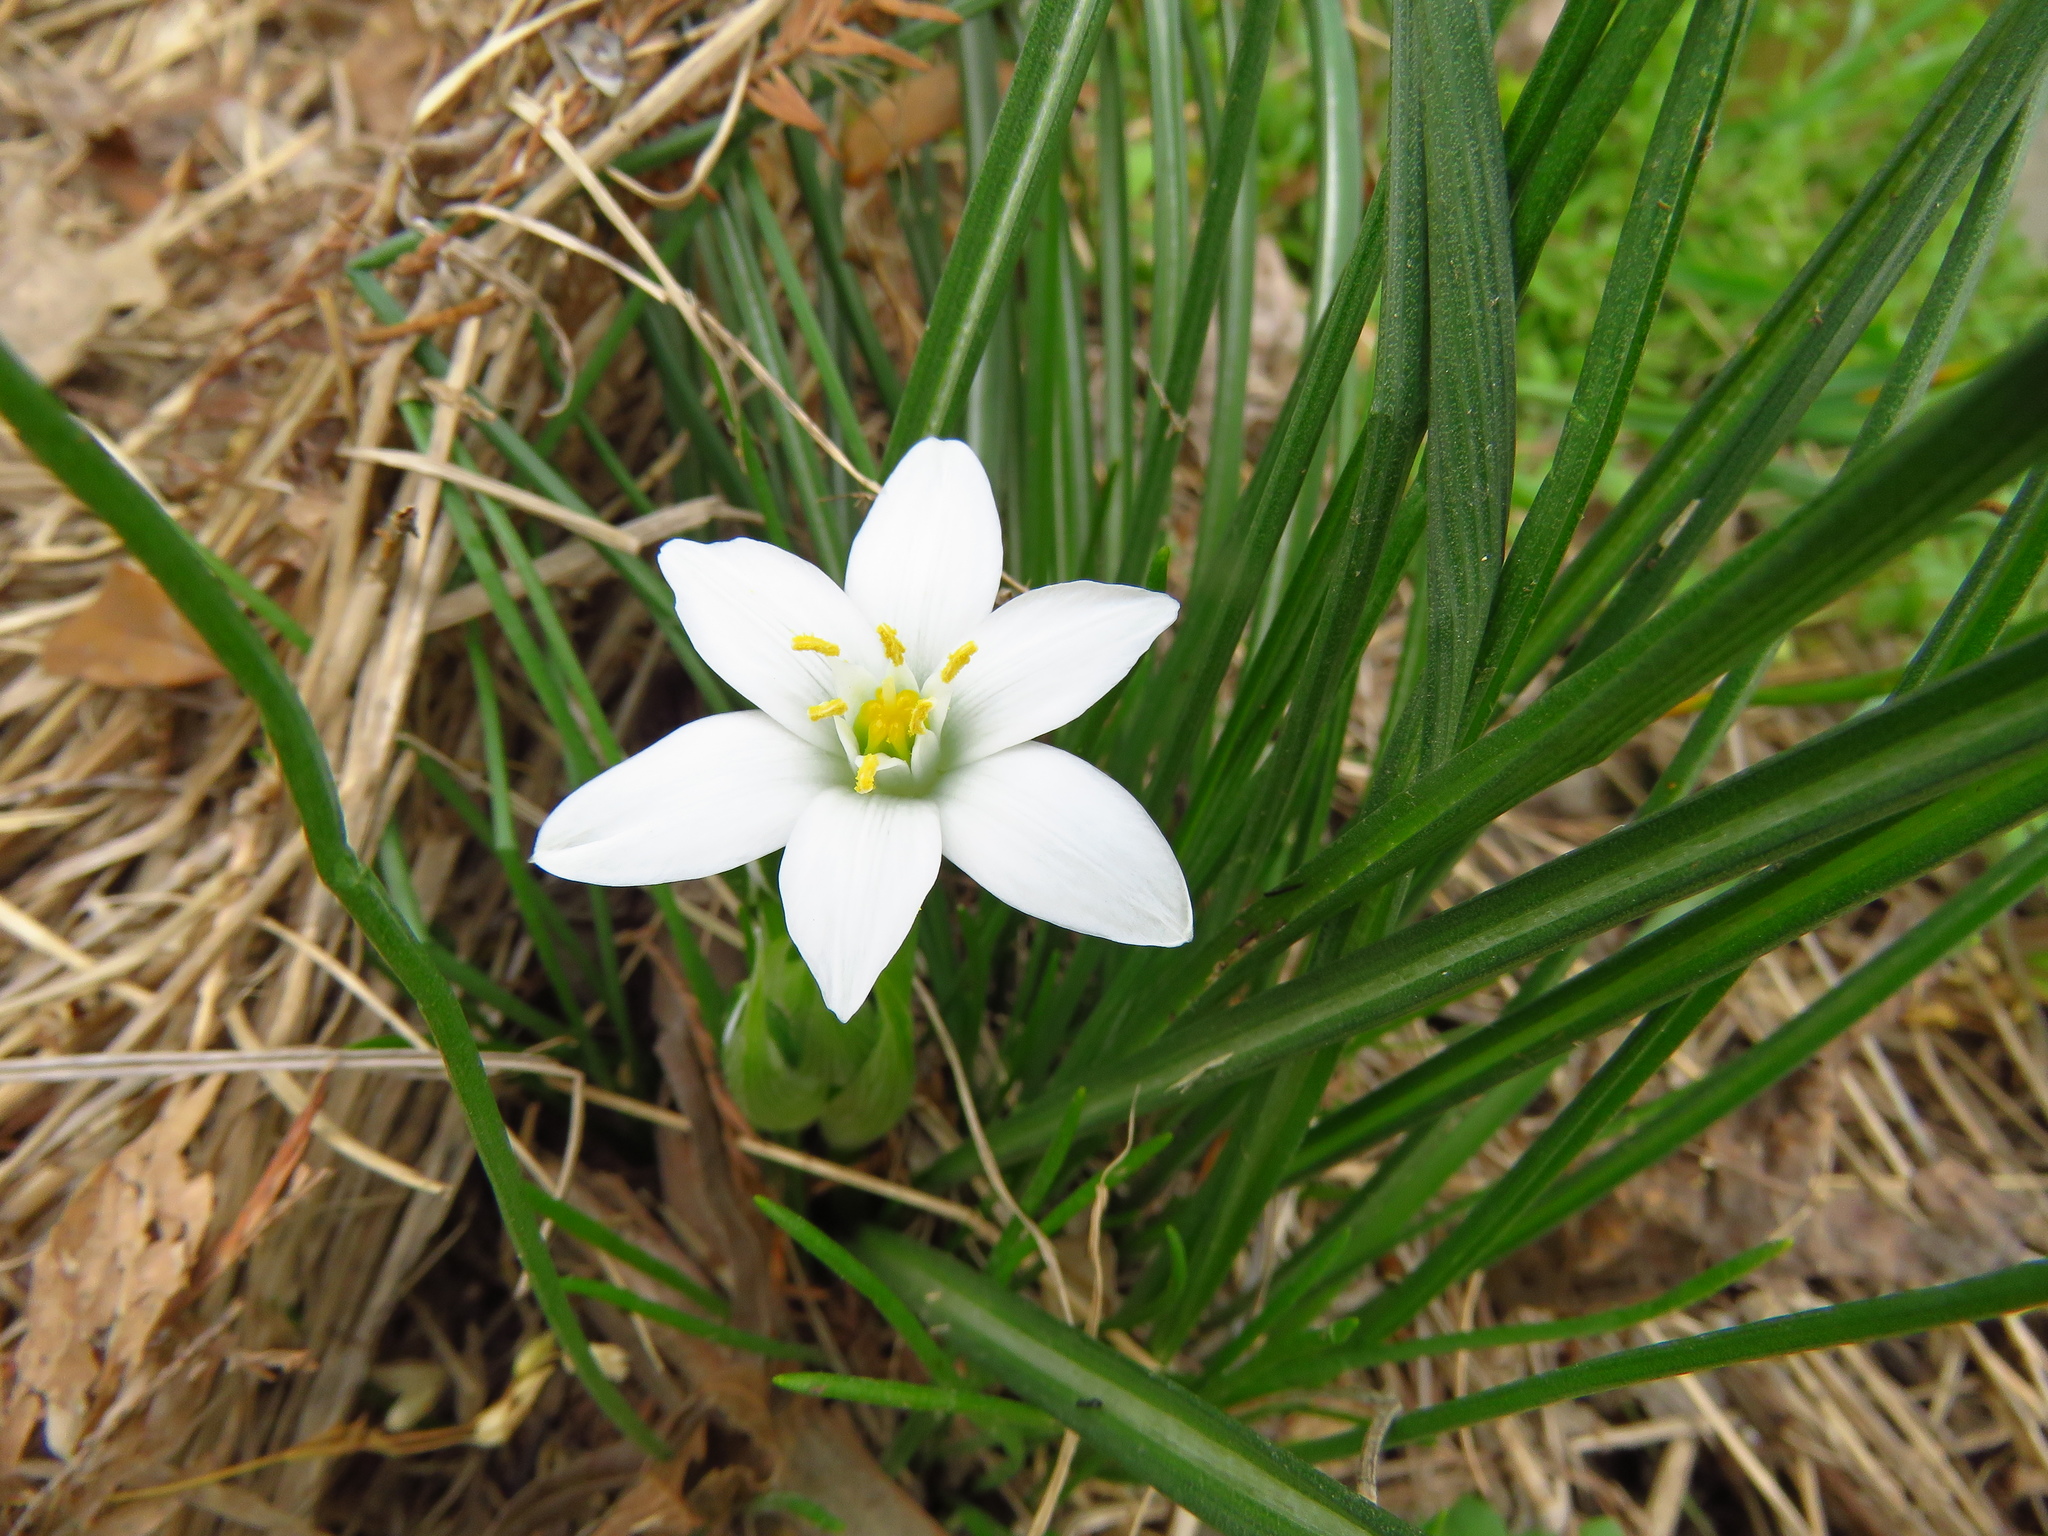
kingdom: Plantae
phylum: Tracheophyta
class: Liliopsida
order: Asparagales
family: Asparagaceae
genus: Ornithogalum
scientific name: Ornithogalum umbellatum
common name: Garden star-of-bethlehem
